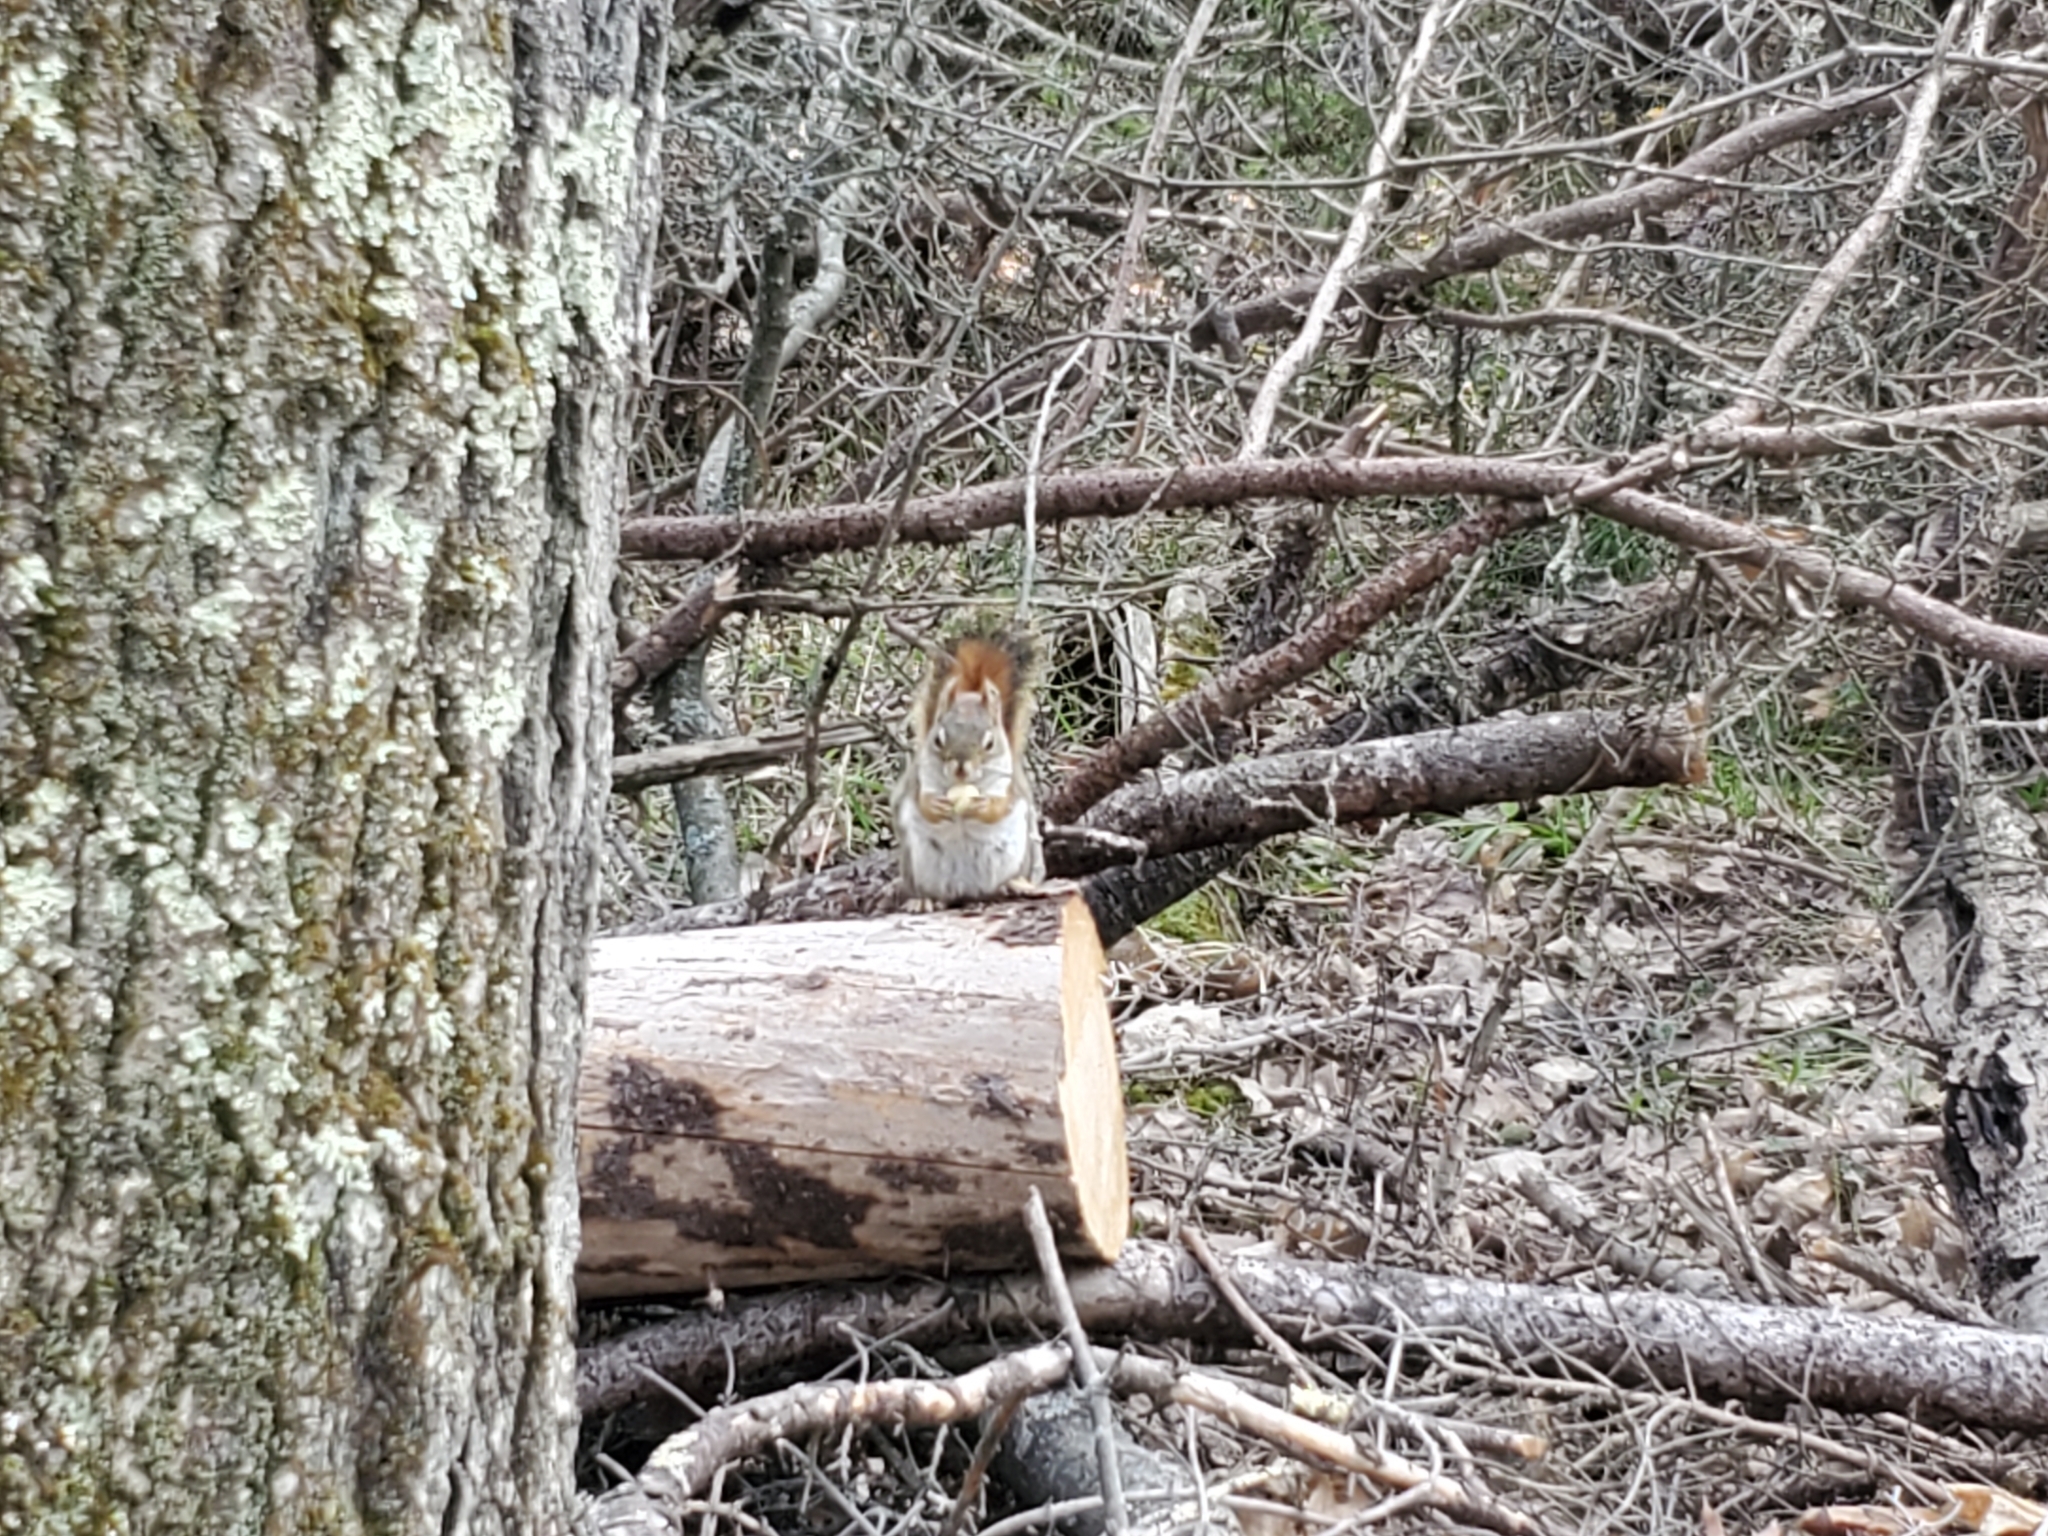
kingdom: Animalia
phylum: Chordata
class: Mammalia
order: Rodentia
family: Sciuridae
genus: Tamiasciurus
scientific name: Tamiasciurus hudsonicus
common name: Red squirrel
